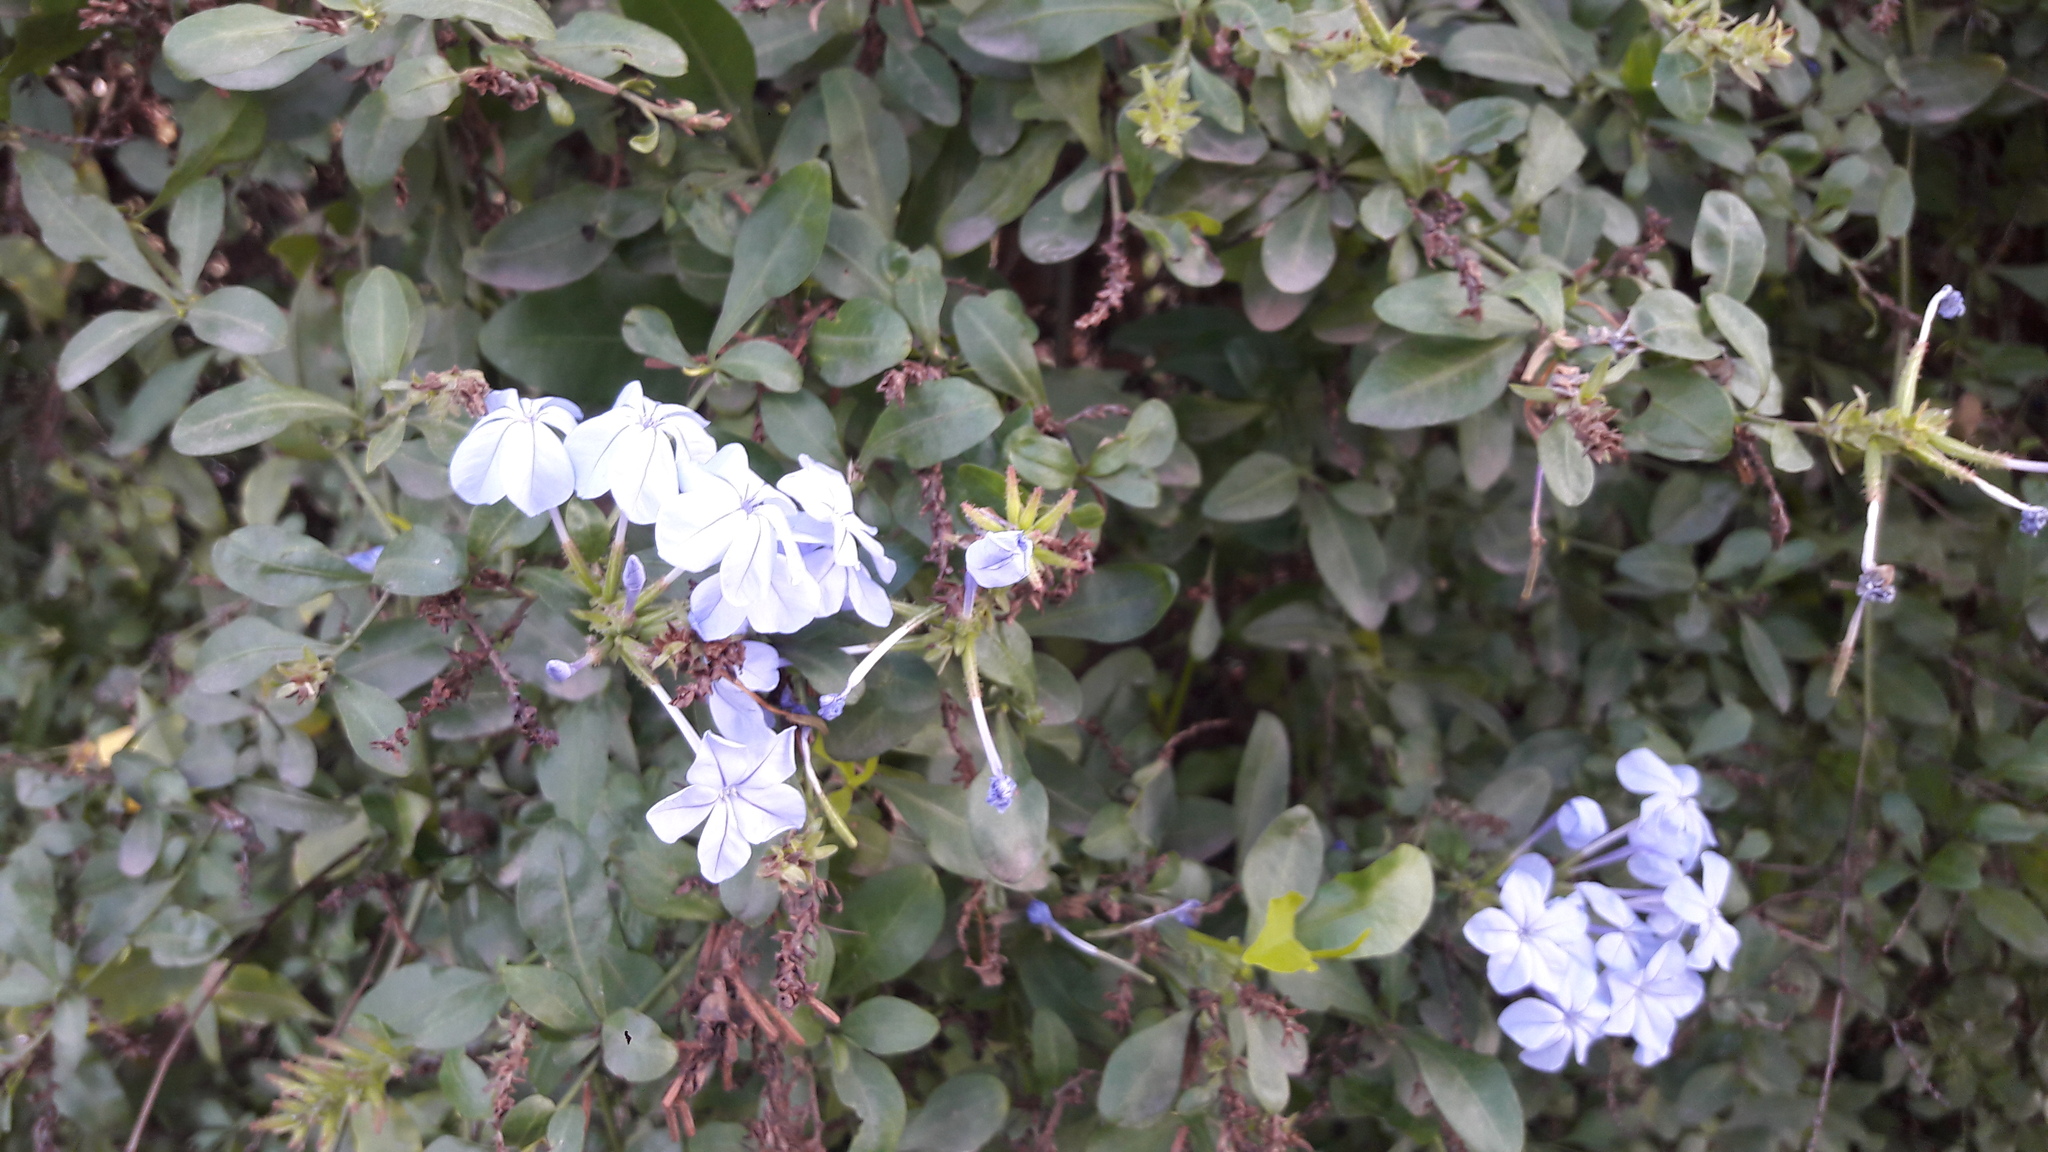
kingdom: Plantae
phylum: Tracheophyta
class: Magnoliopsida
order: Caryophyllales
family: Plumbaginaceae
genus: Plumbago
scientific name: Plumbago auriculata
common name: Cape leadwort
